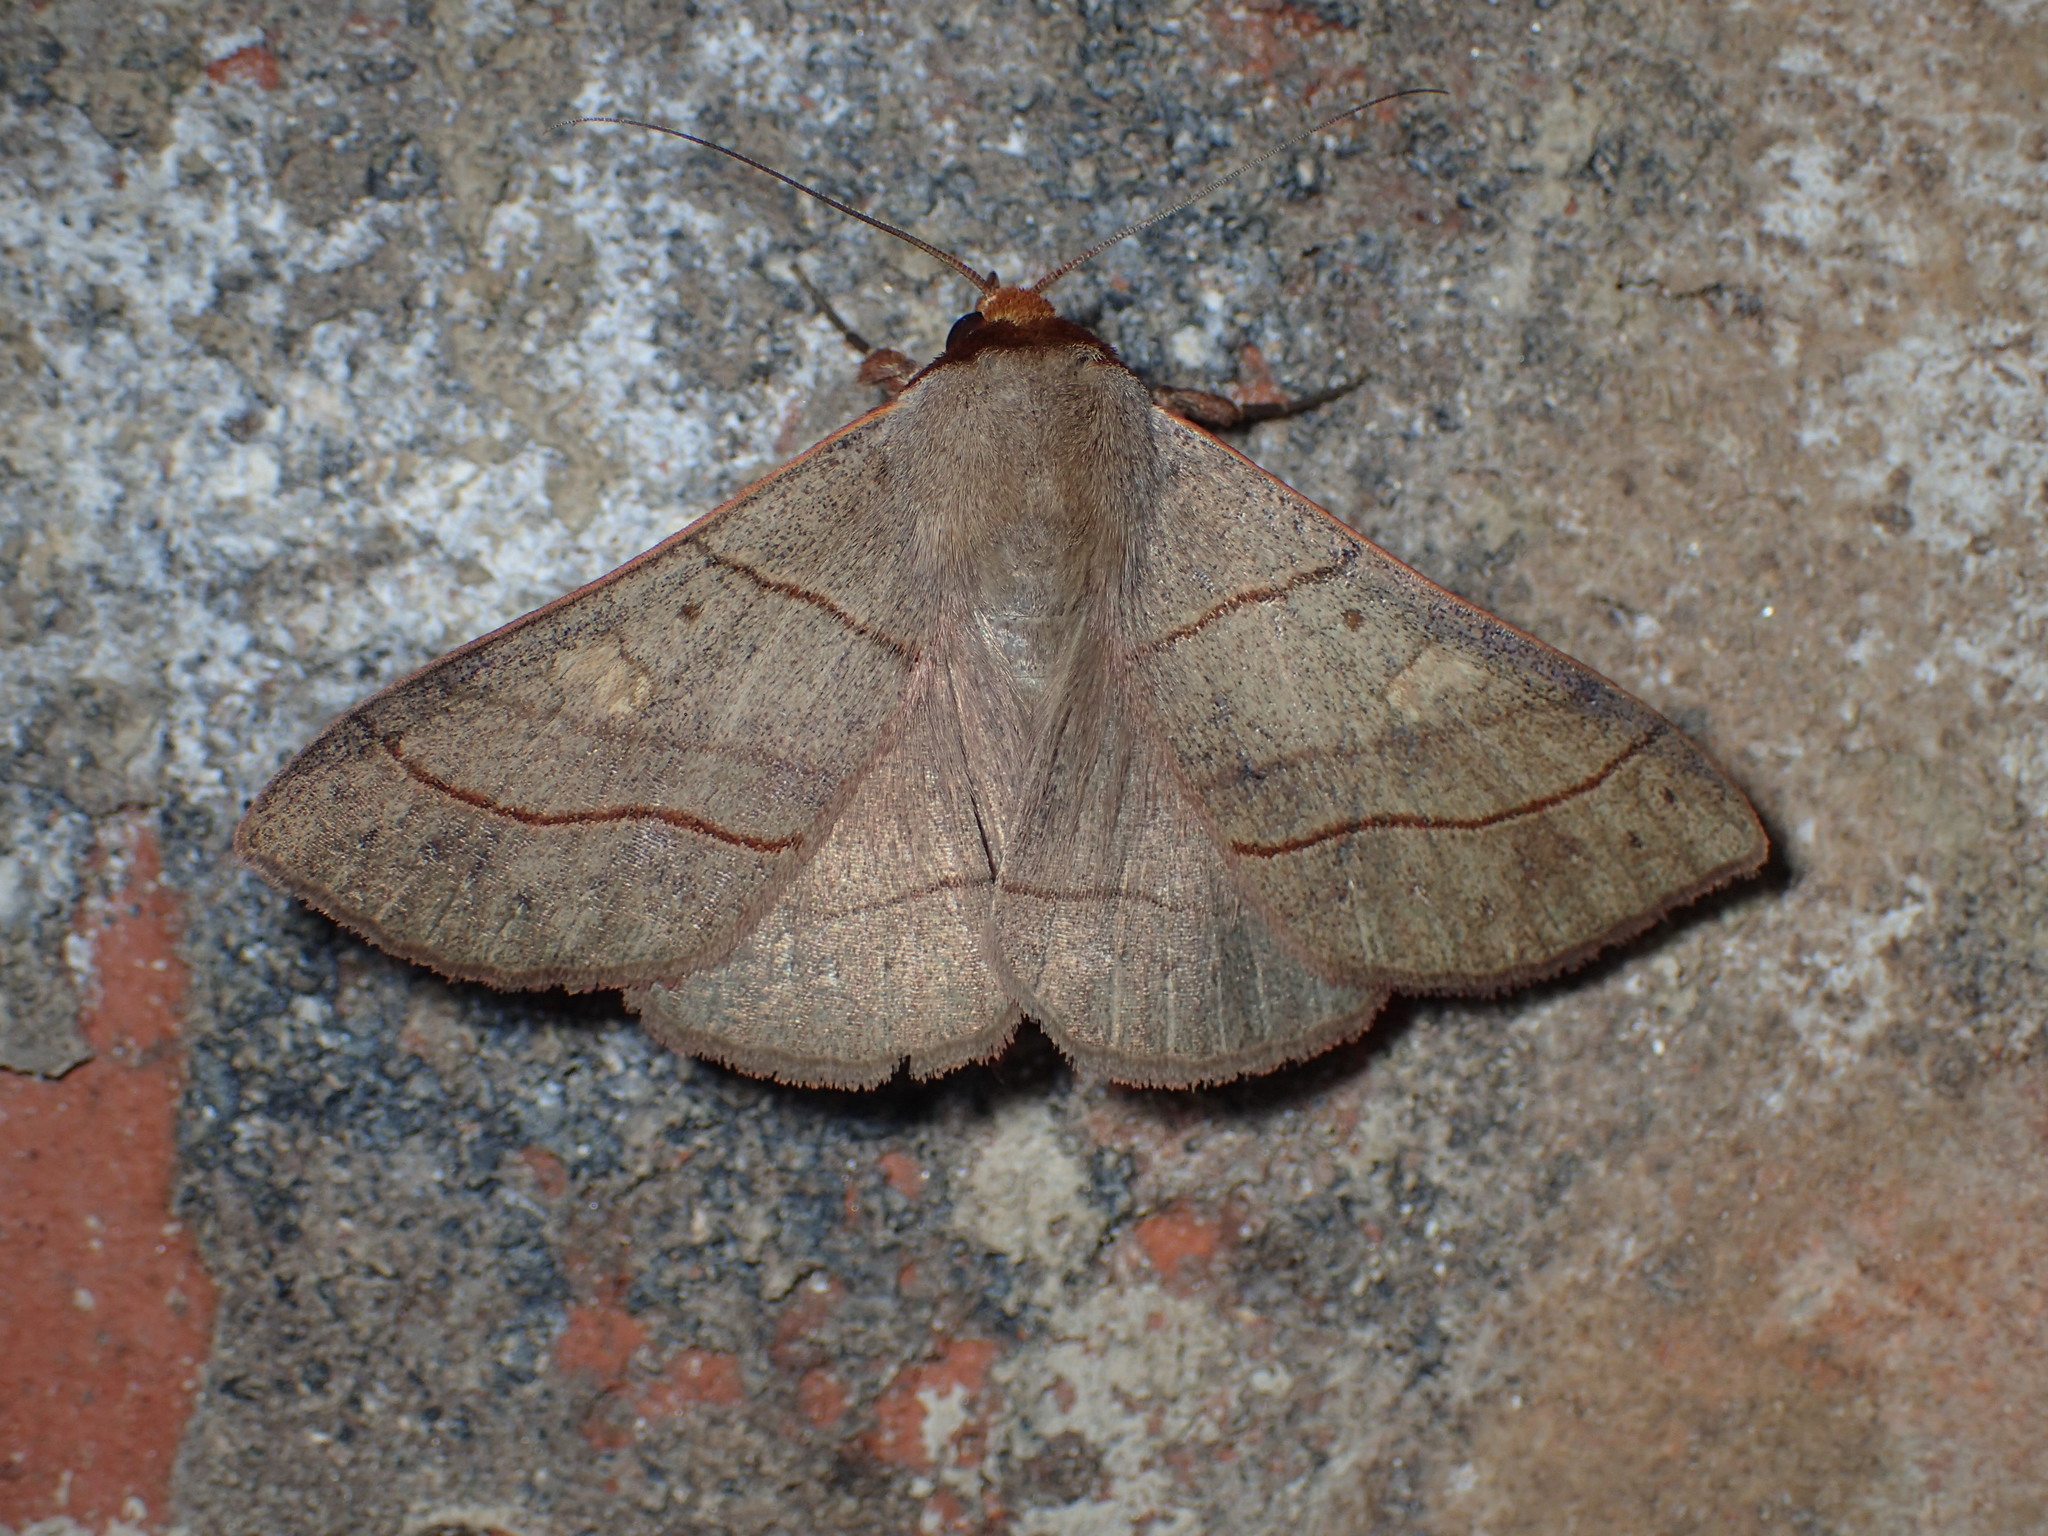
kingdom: Animalia
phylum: Arthropoda
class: Insecta
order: Lepidoptera
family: Erebidae
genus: Panopoda
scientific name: Panopoda rufimargo
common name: Red-lined panopoda moth
